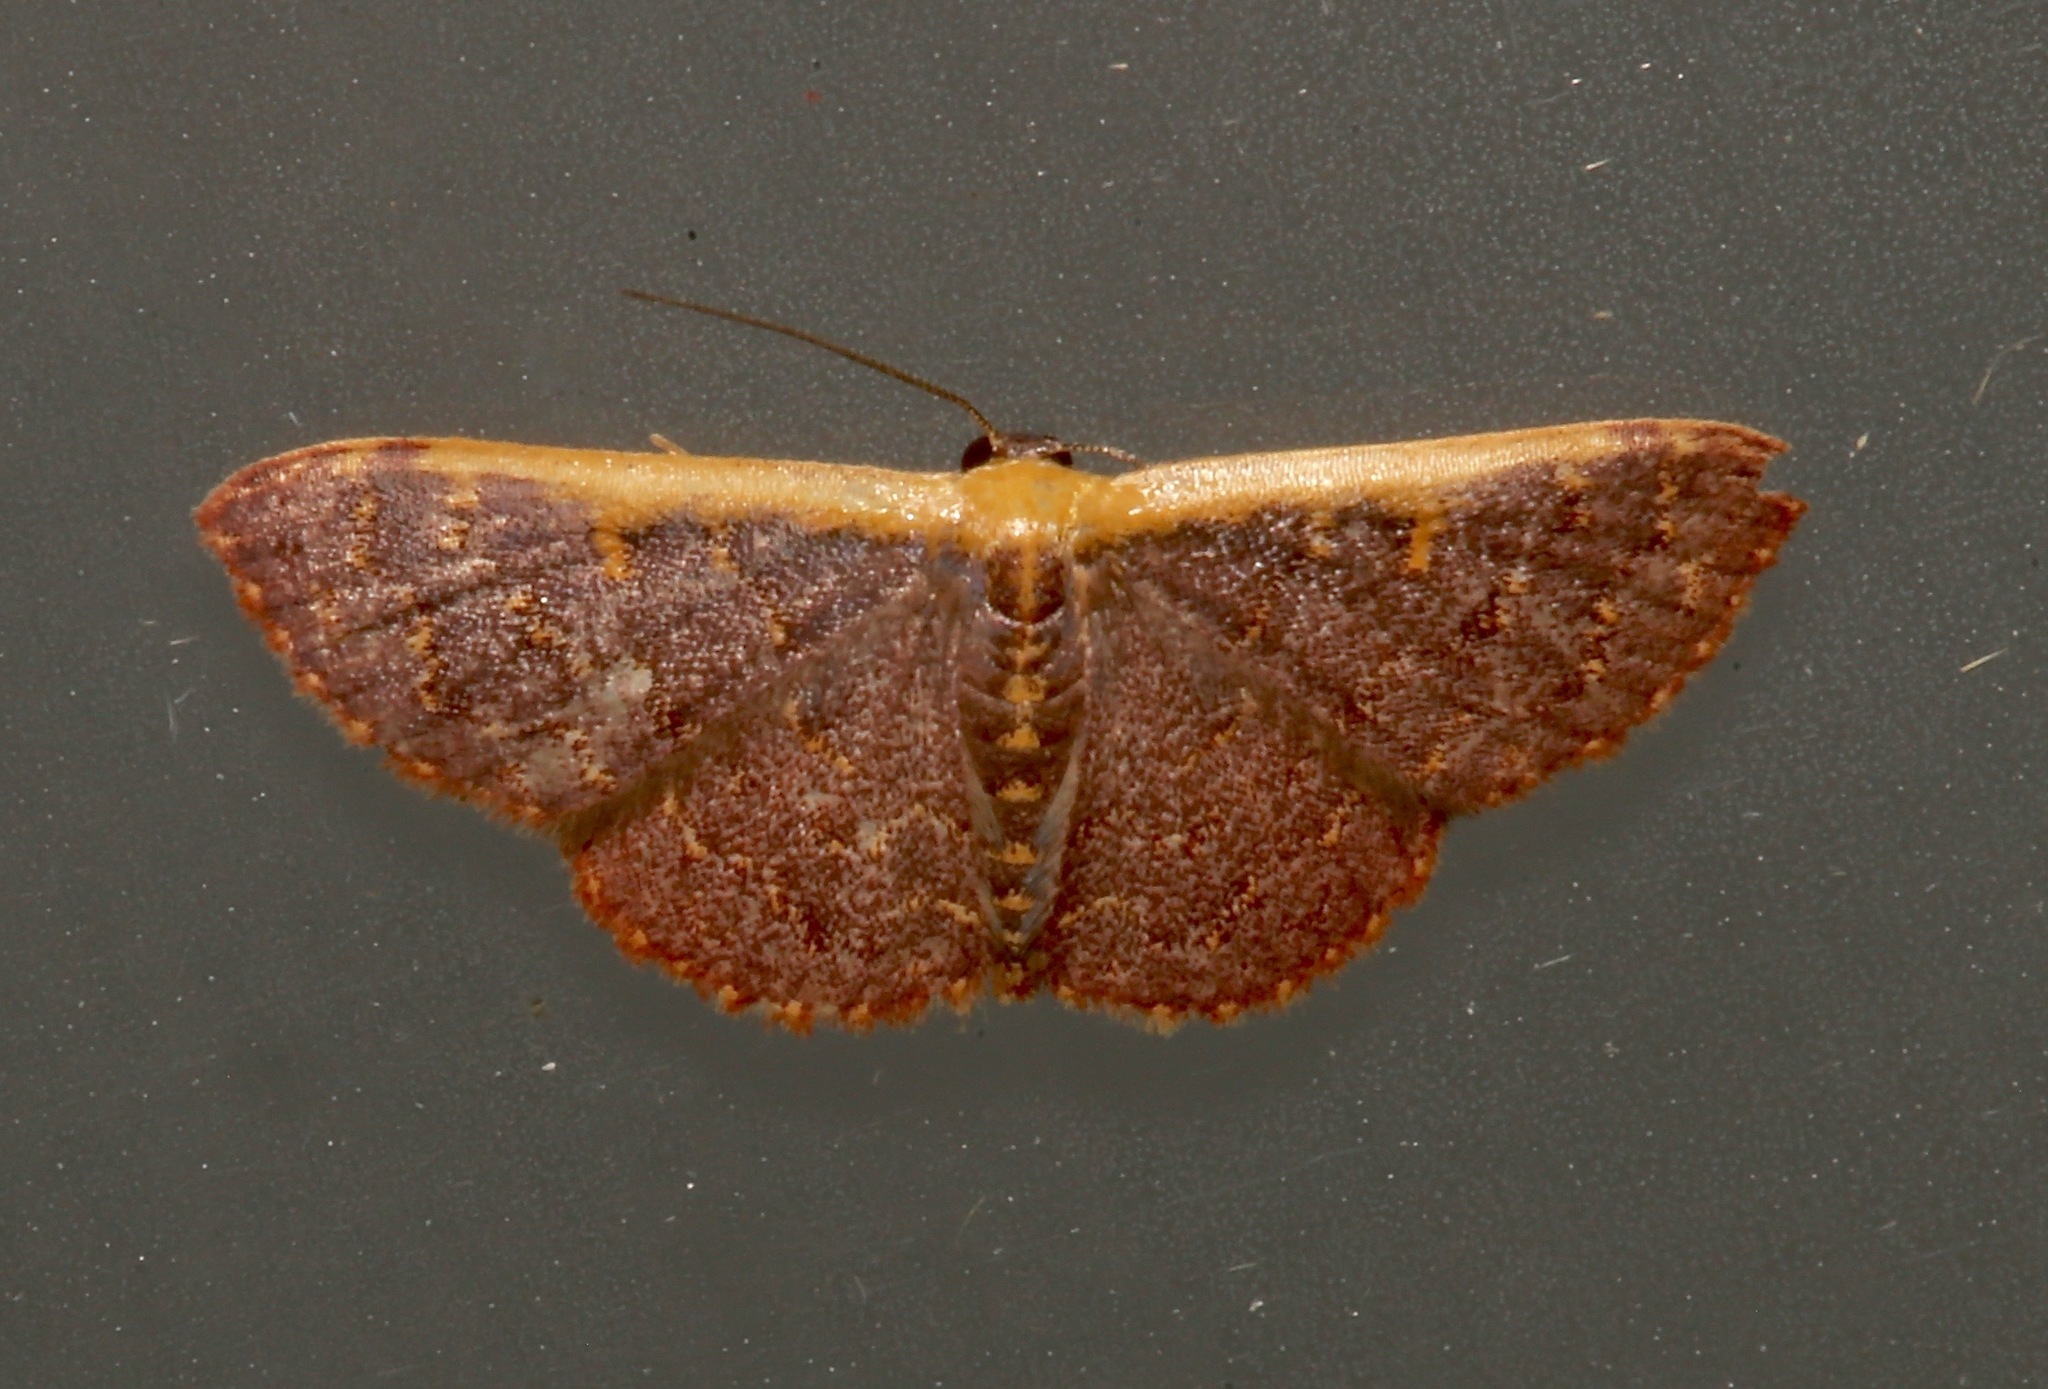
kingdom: Animalia
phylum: Arthropoda
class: Insecta
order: Lepidoptera
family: Geometridae
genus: Leptostales
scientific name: Leptostales crossii
